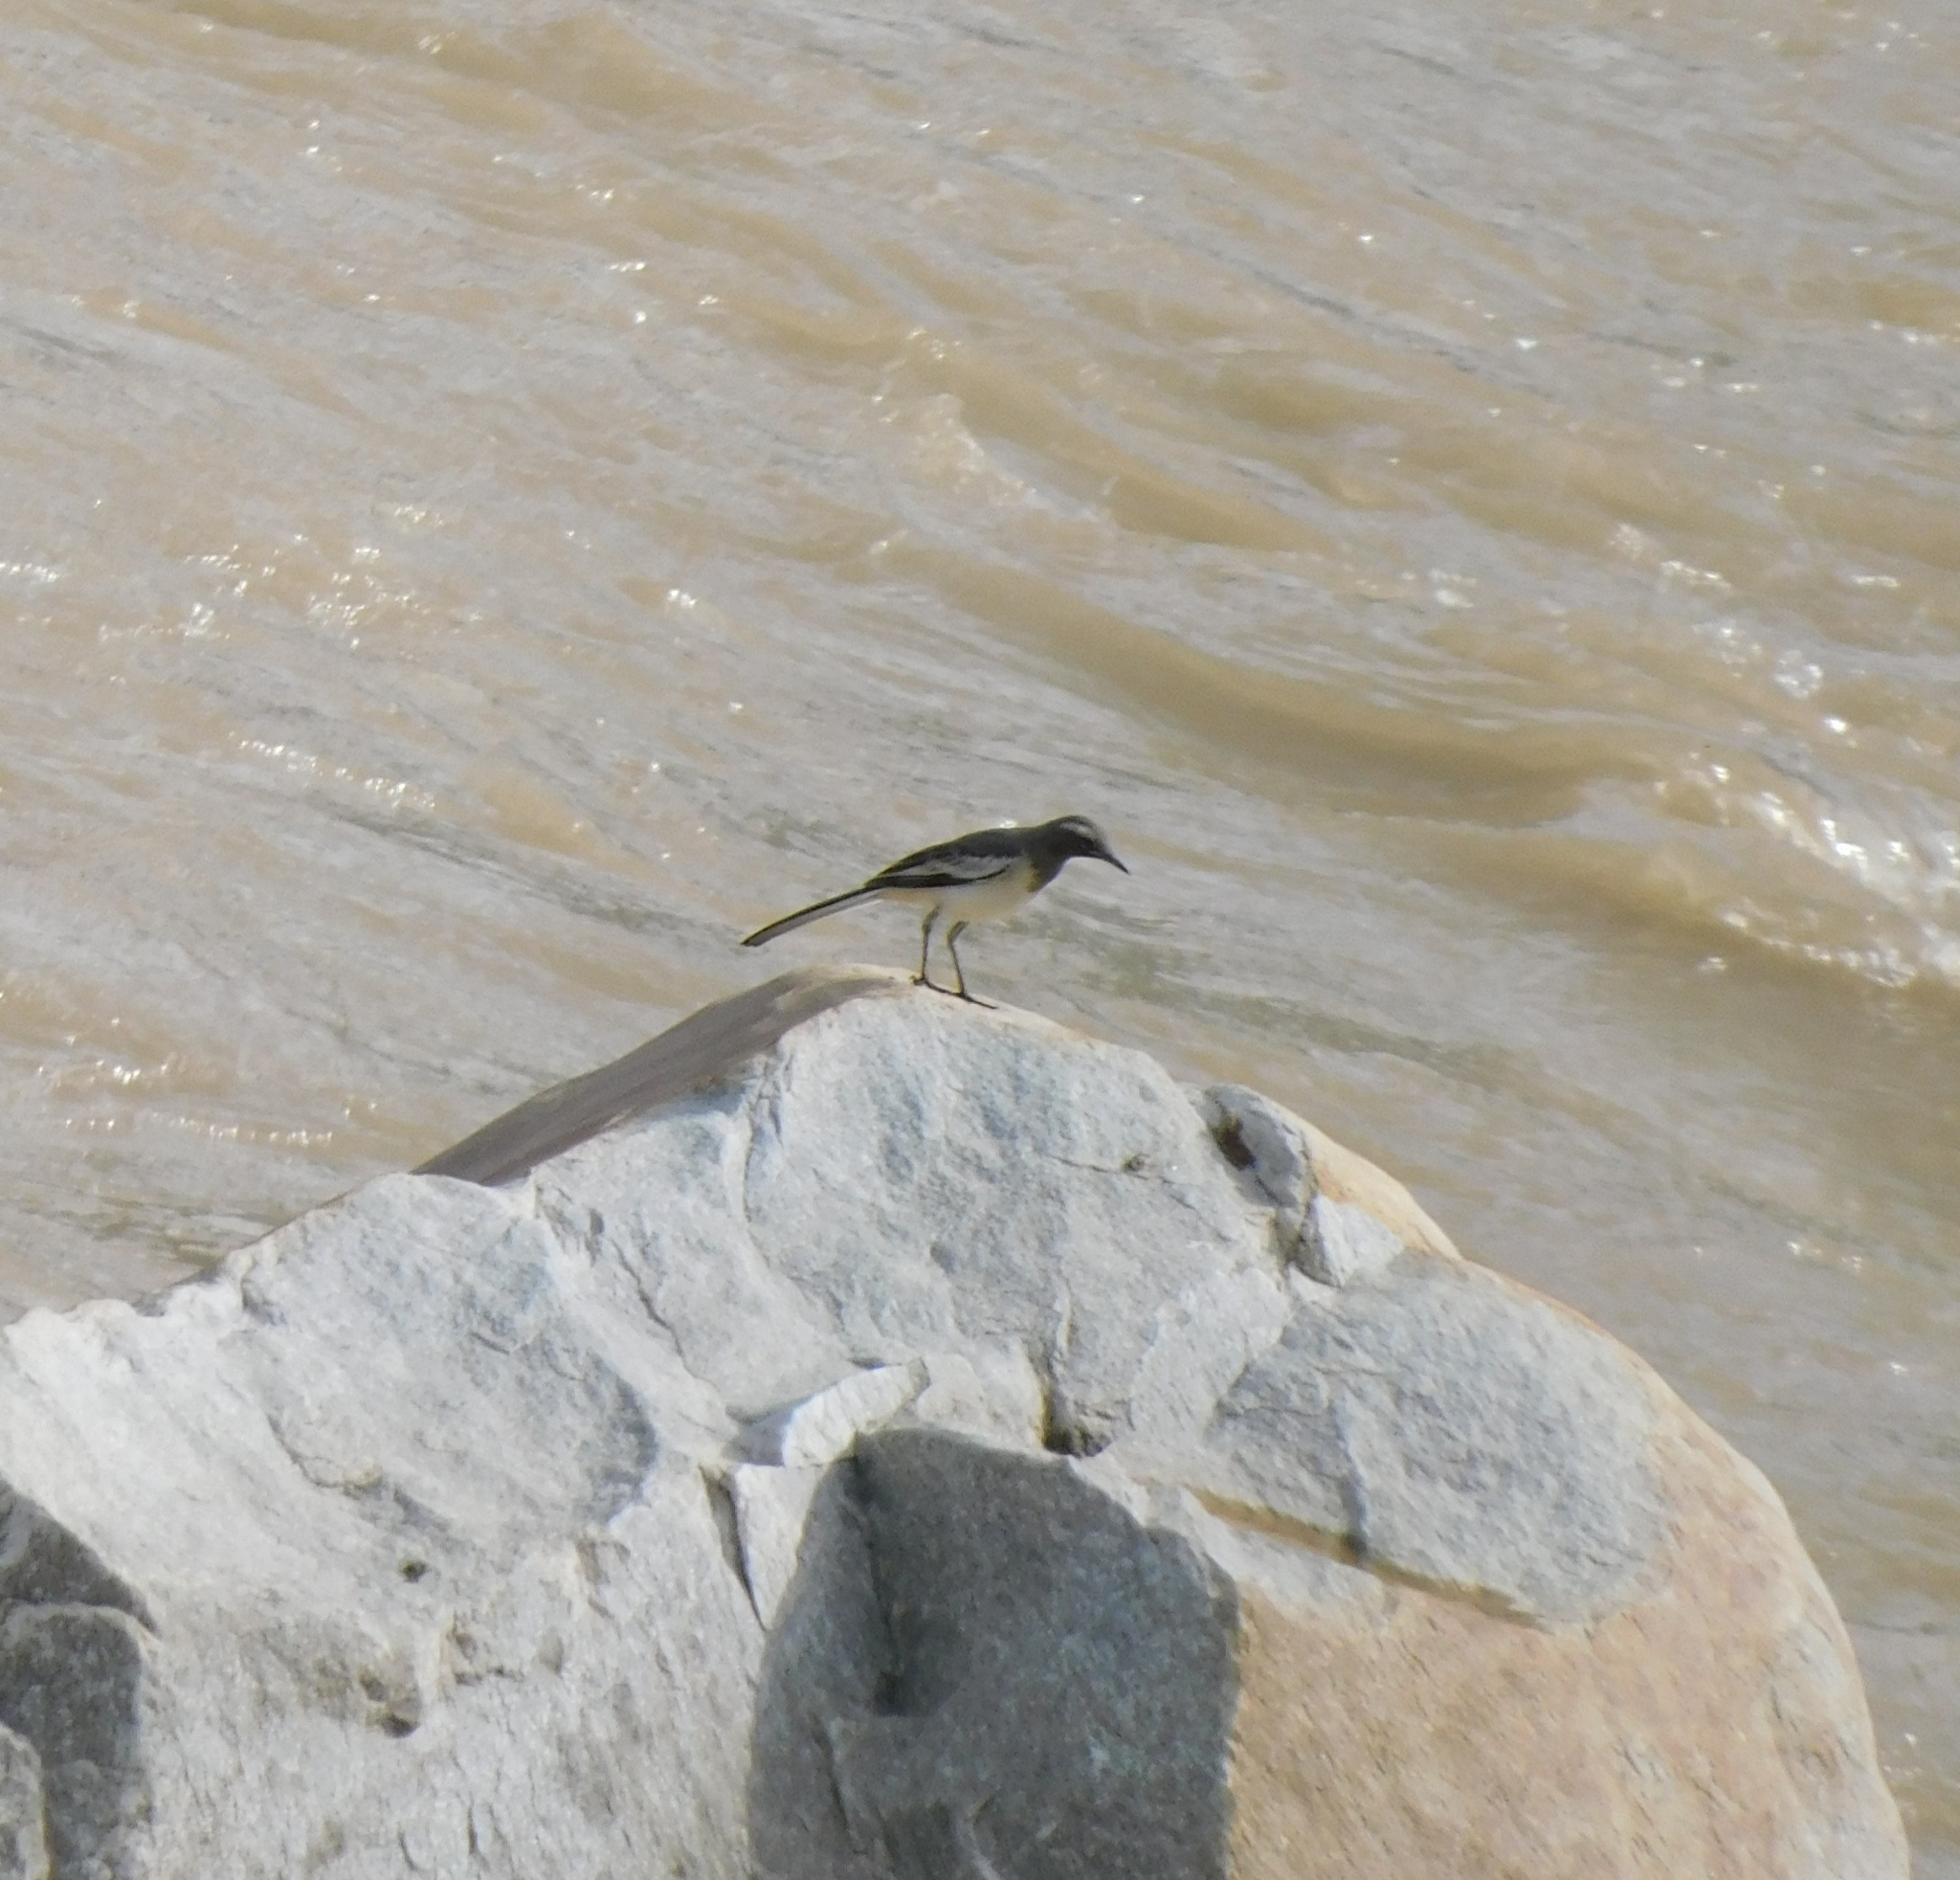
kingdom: Animalia
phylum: Chordata
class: Aves
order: Passeriformes
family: Motacillidae
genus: Motacilla
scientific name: Motacilla maderaspatensis
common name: White-browed wagtail
